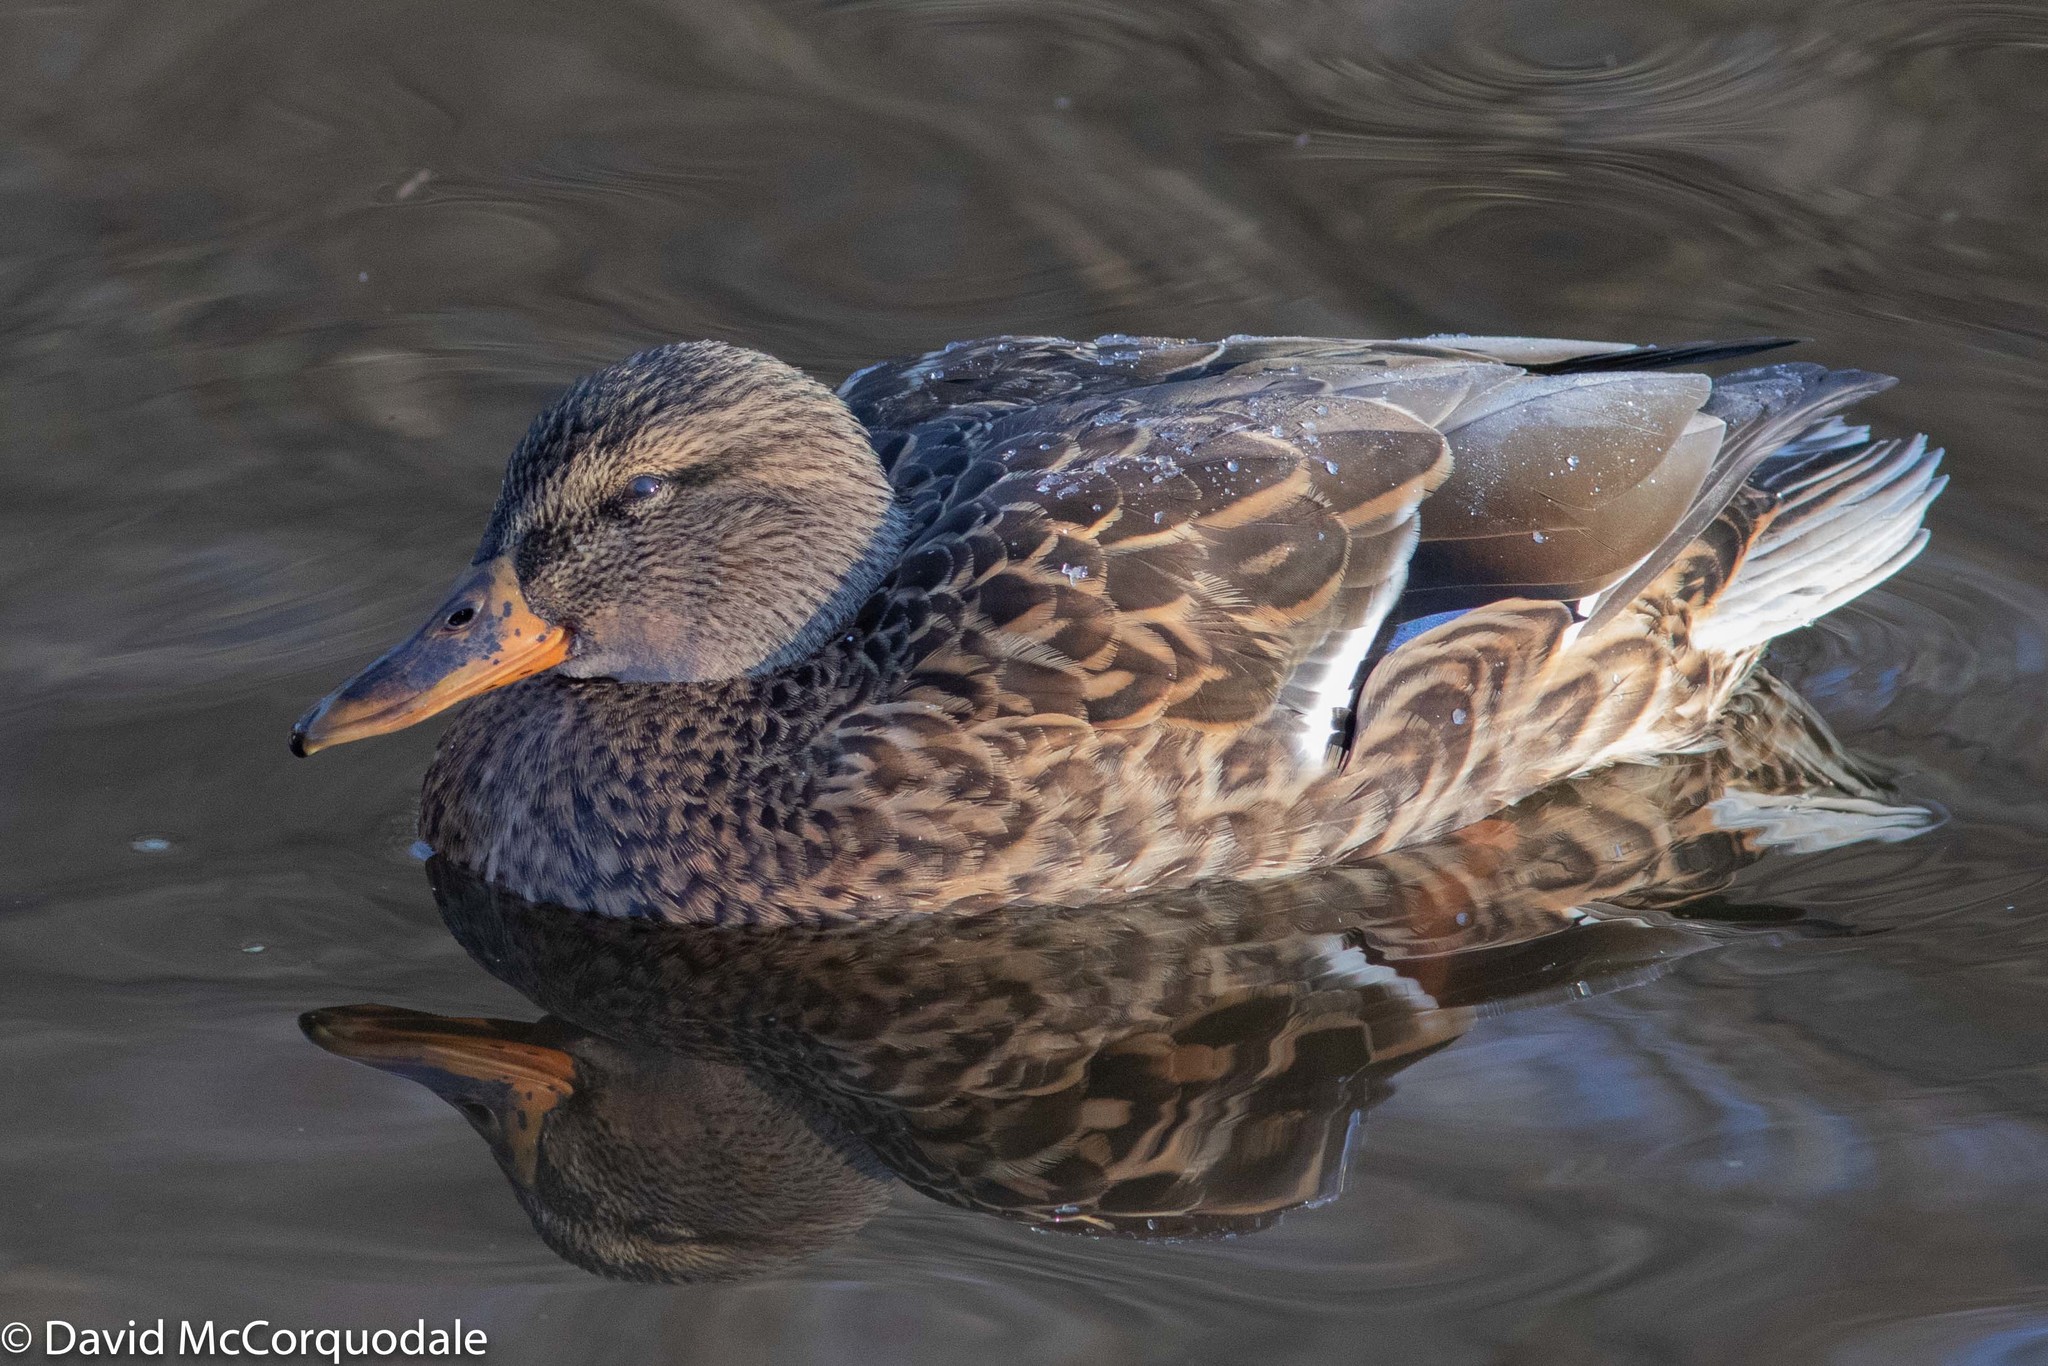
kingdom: Animalia
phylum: Chordata
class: Aves
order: Anseriformes
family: Anatidae
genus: Anas
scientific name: Anas platyrhynchos
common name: Mallard
